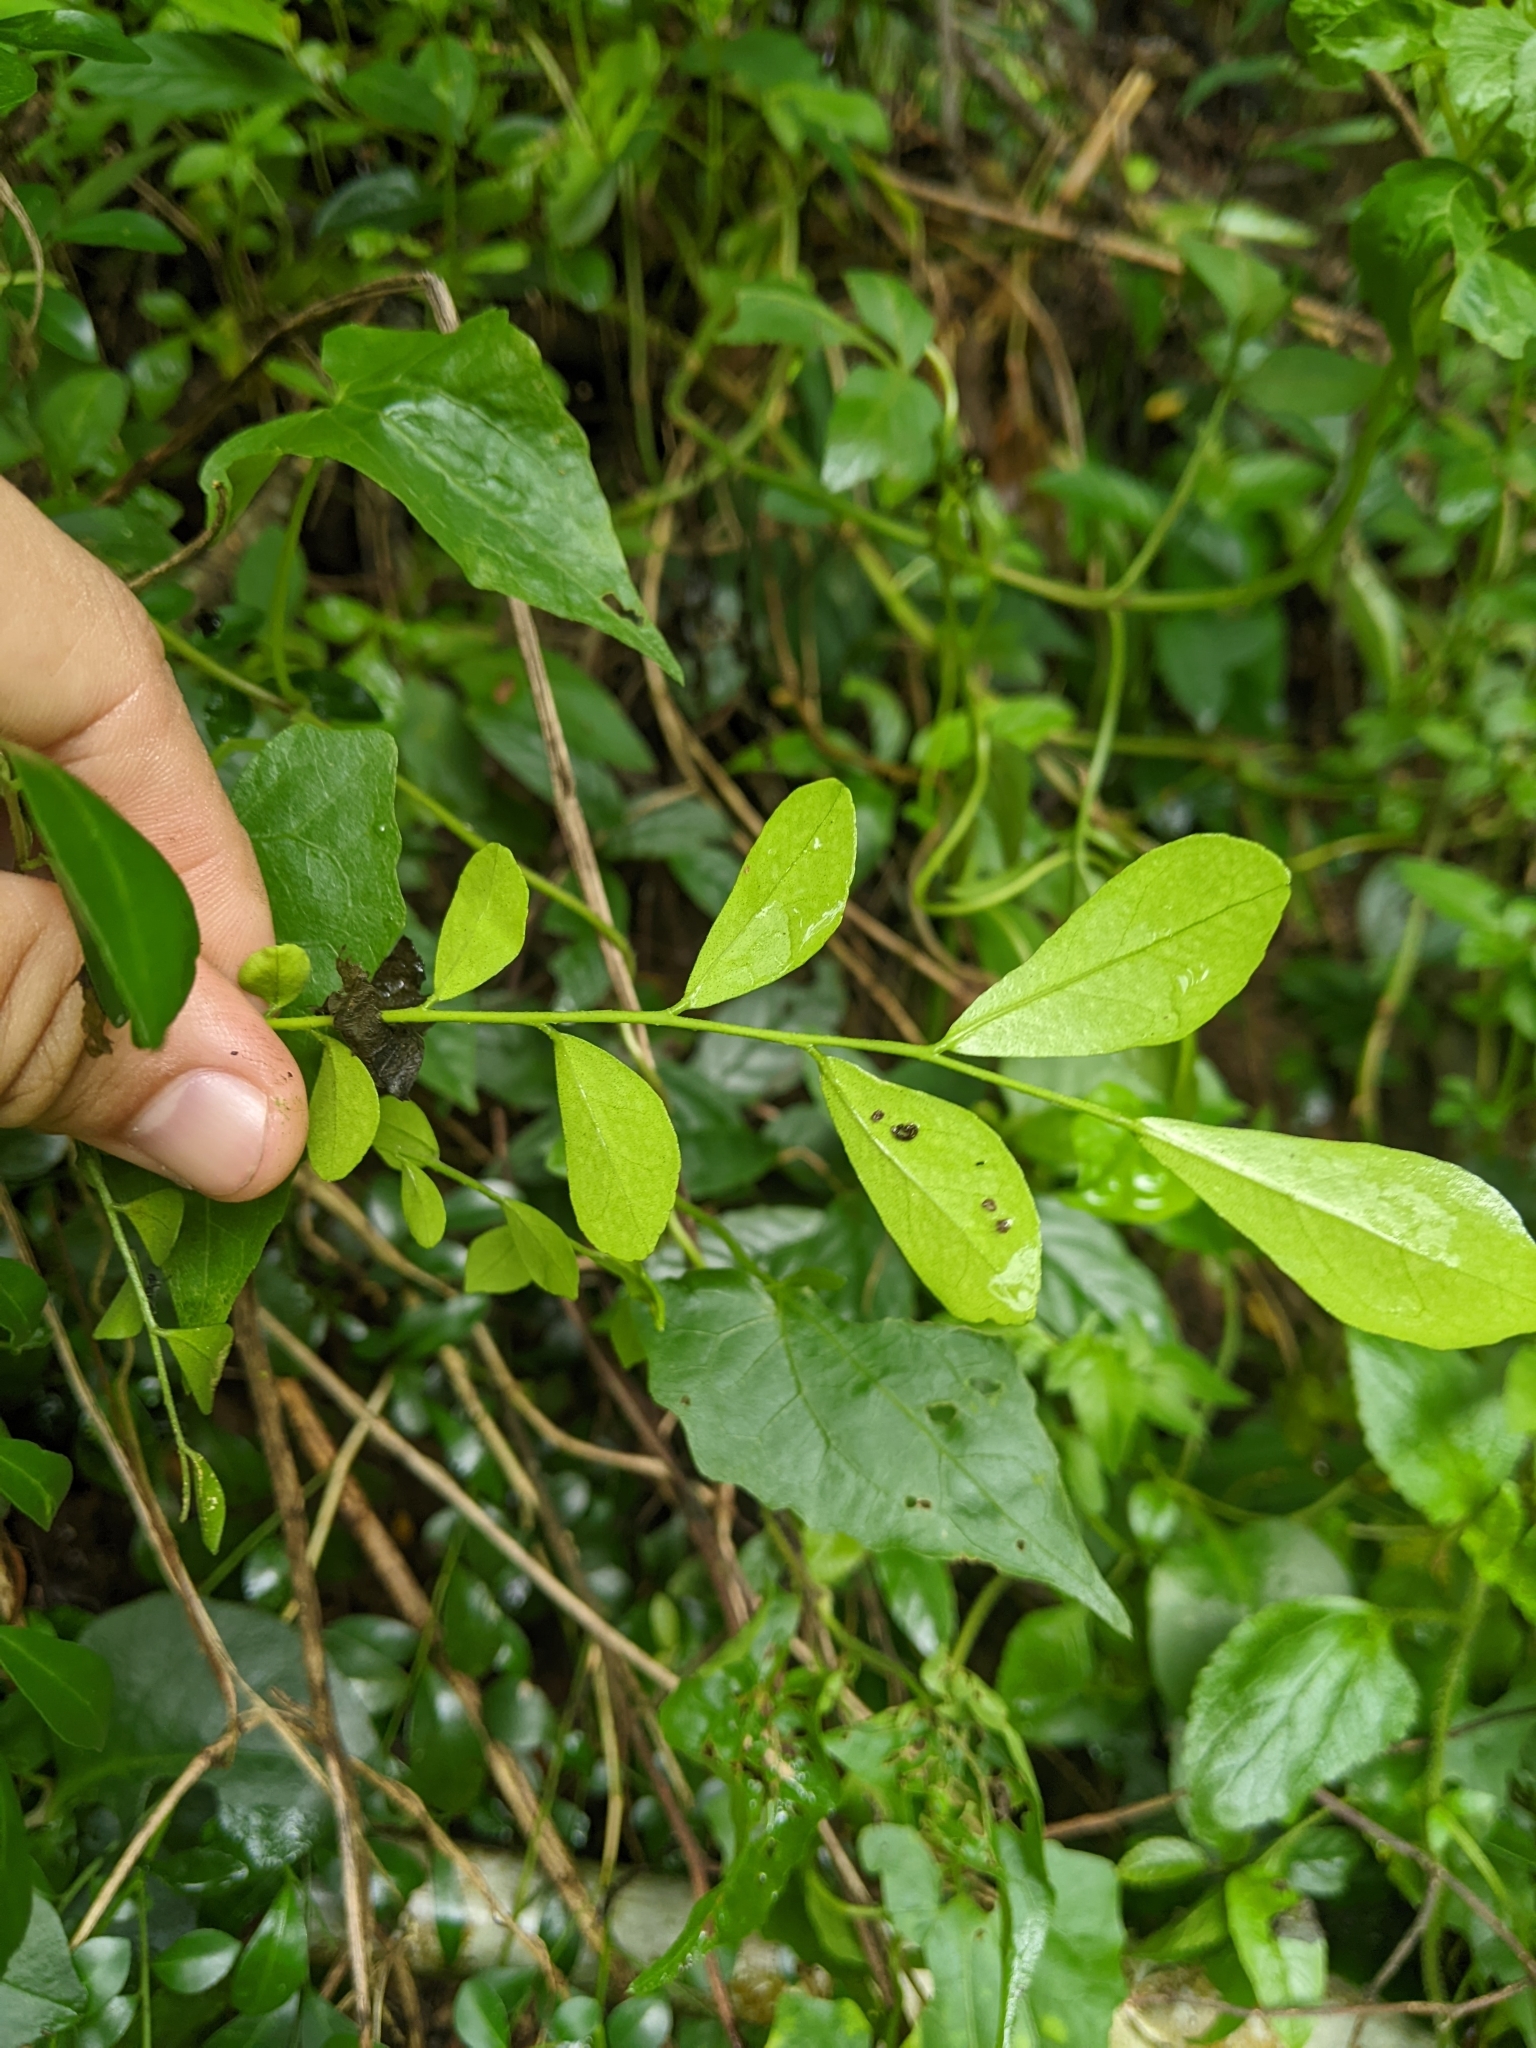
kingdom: Plantae
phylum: Tracheophyta
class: Magnoliopsida
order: Sapindales
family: Rutaceae
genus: Murraya
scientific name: Murraya paniculata
